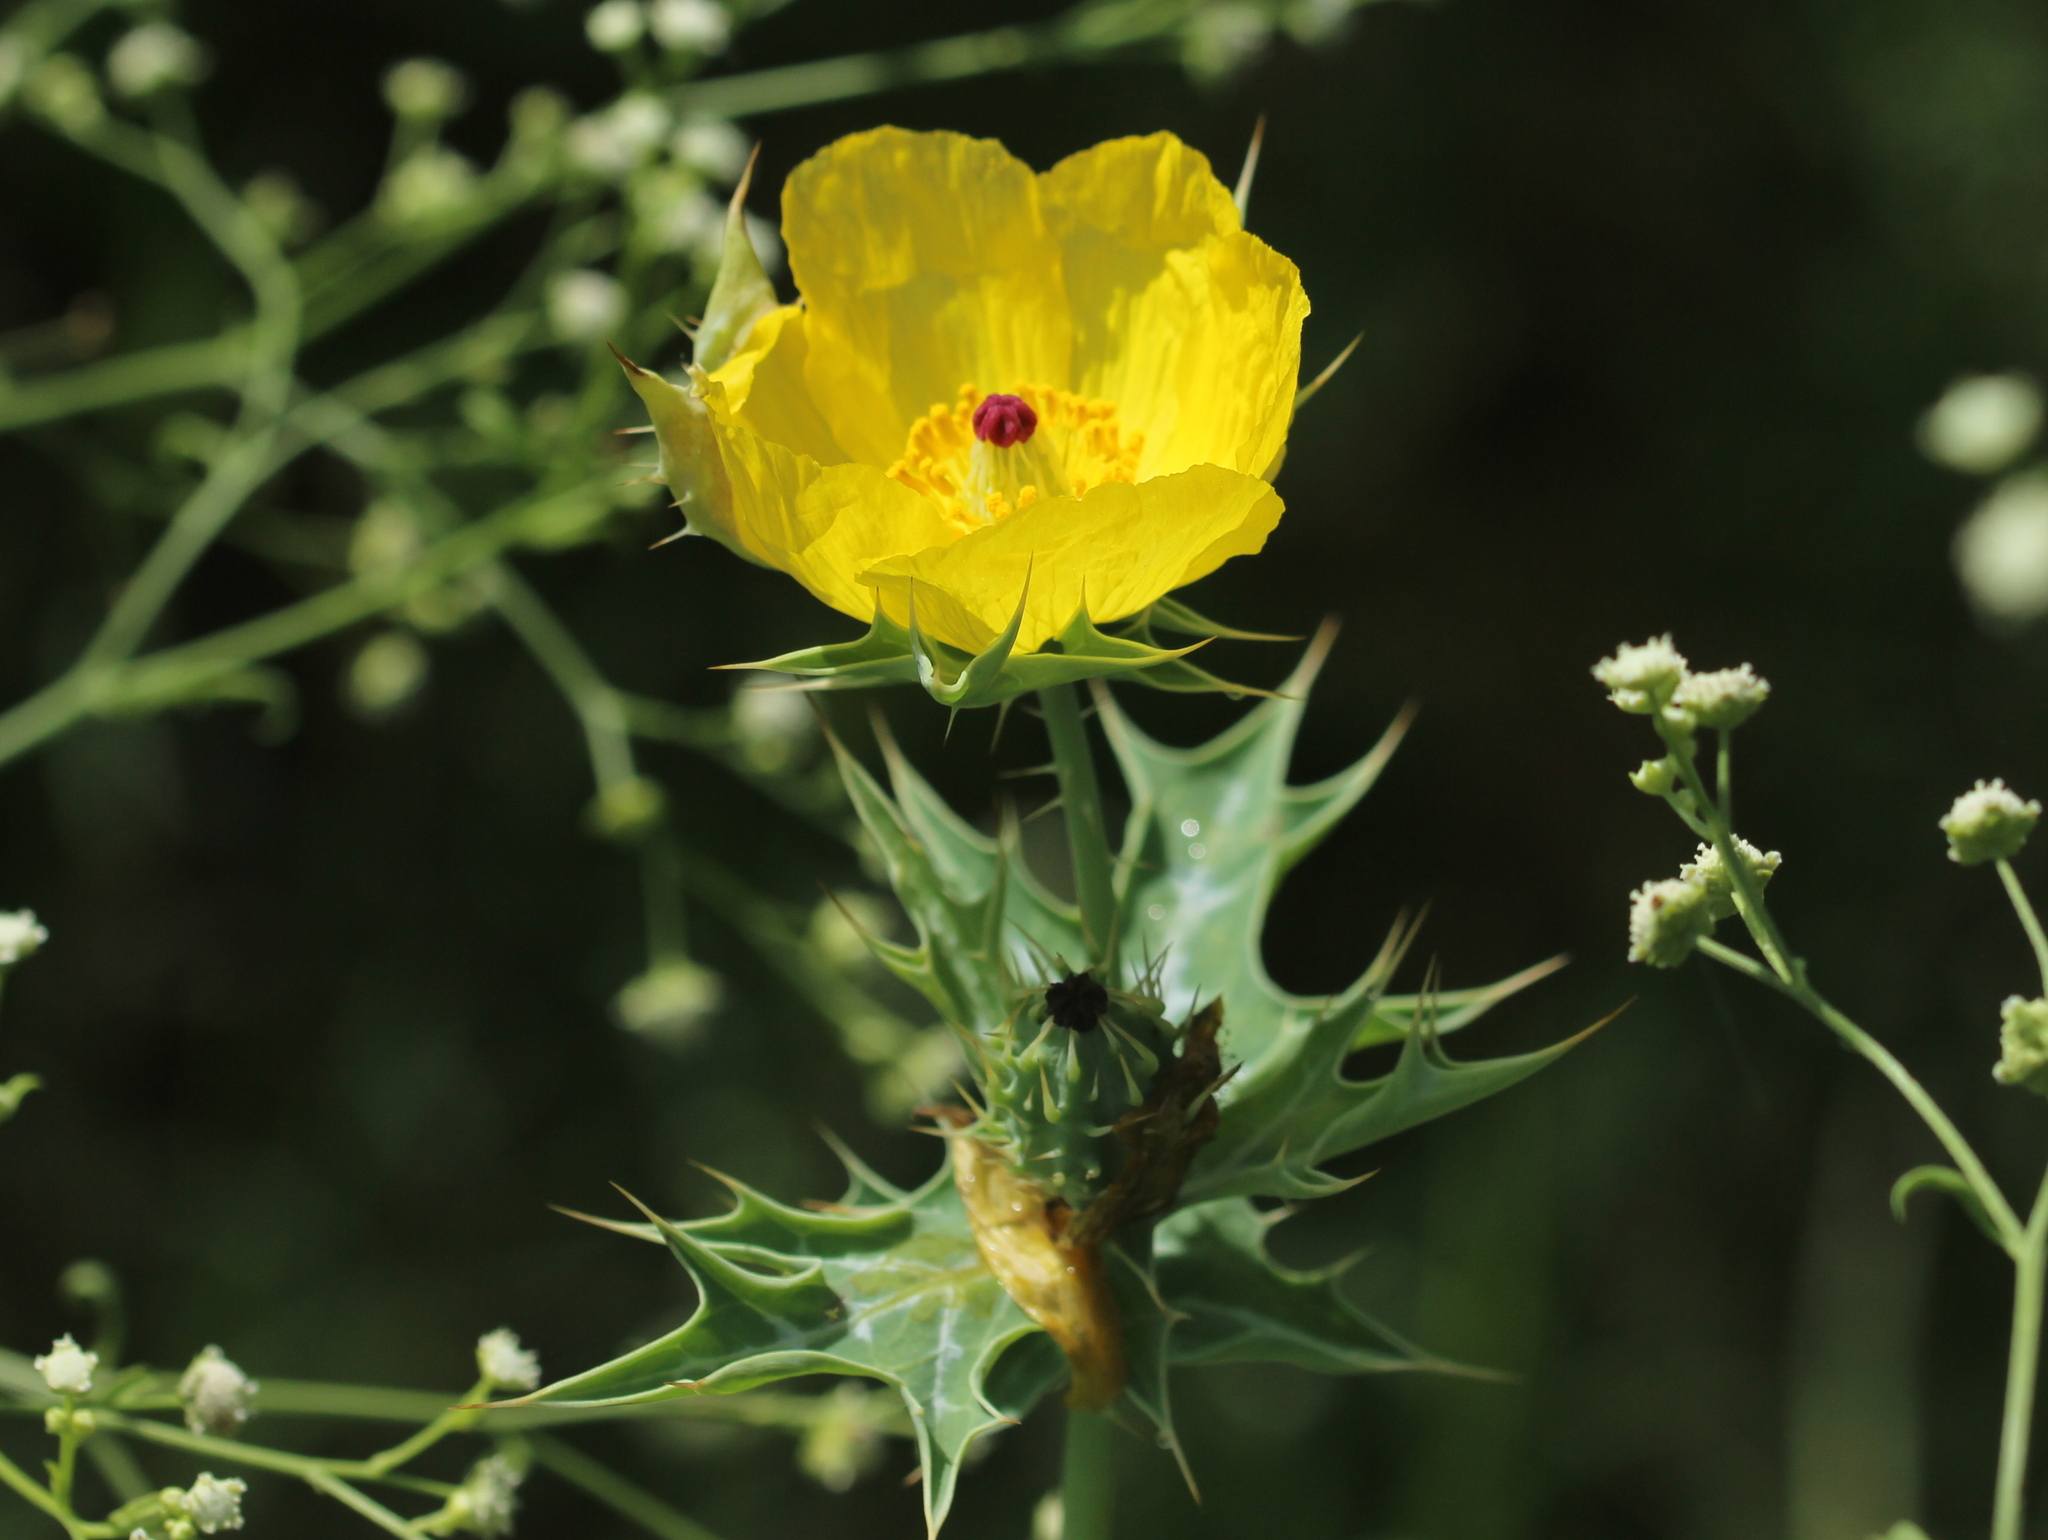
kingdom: Plantae
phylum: Tracheophyta
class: Magnoliopsida
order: Ranunculales
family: Papaveraceae
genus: Argemone
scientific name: Argemone mexicana
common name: Mexican poppy
